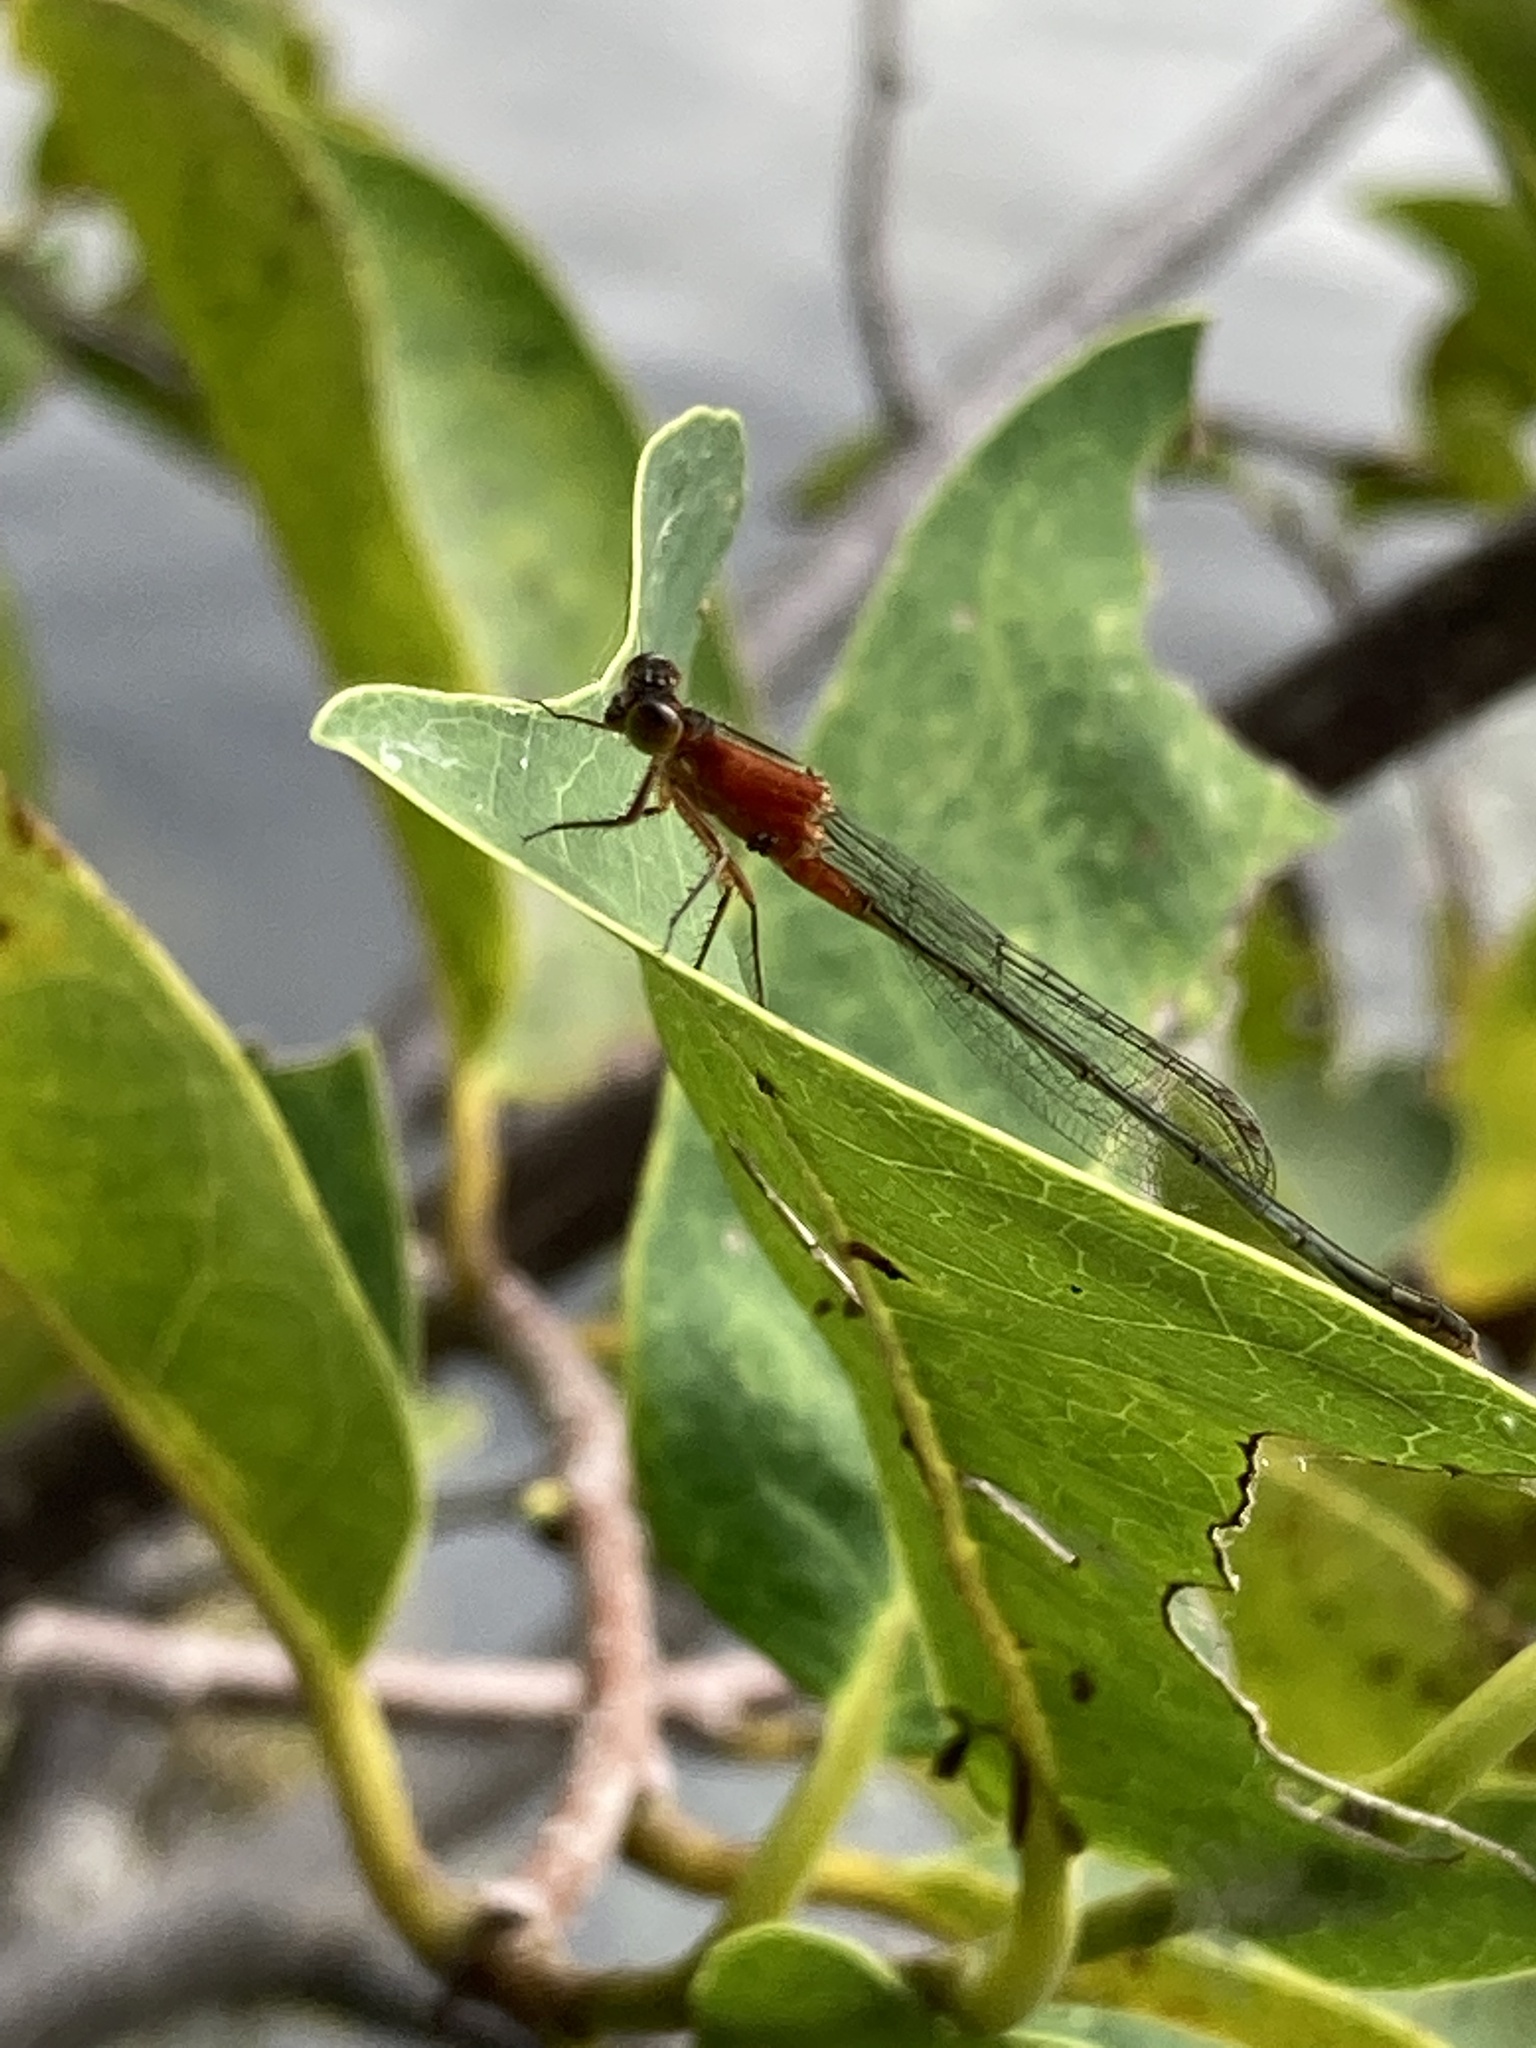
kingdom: Animalia
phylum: Arthropoda
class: Insecta
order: Odonata
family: Coenagrionidae
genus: Ischnura
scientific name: Ischnura ramburii
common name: Rambur's forktail
